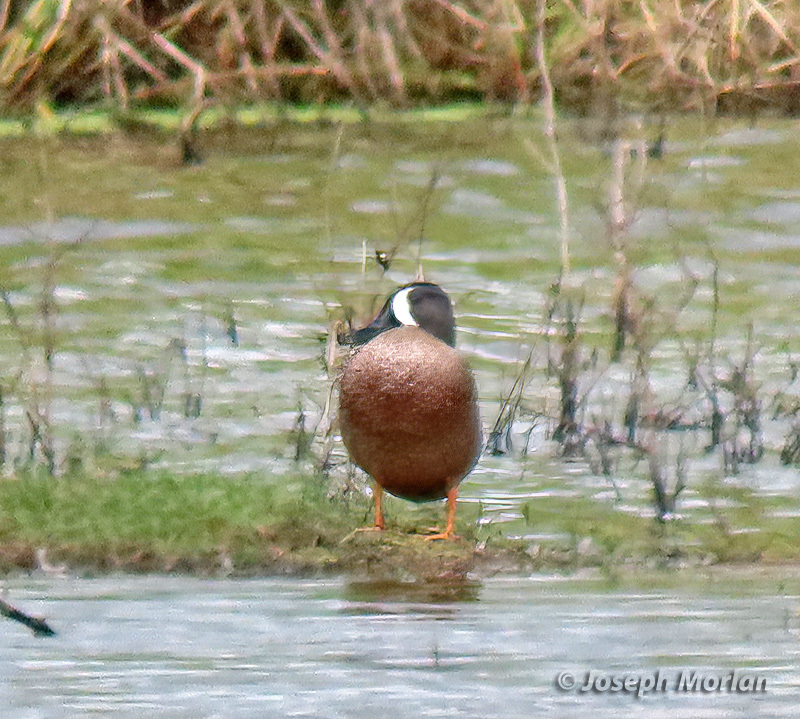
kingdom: Animalia
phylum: Chordata
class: Aves
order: Anseriformes
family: Anatidae
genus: Spatula
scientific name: Spatula discors
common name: Blue-winged teal
